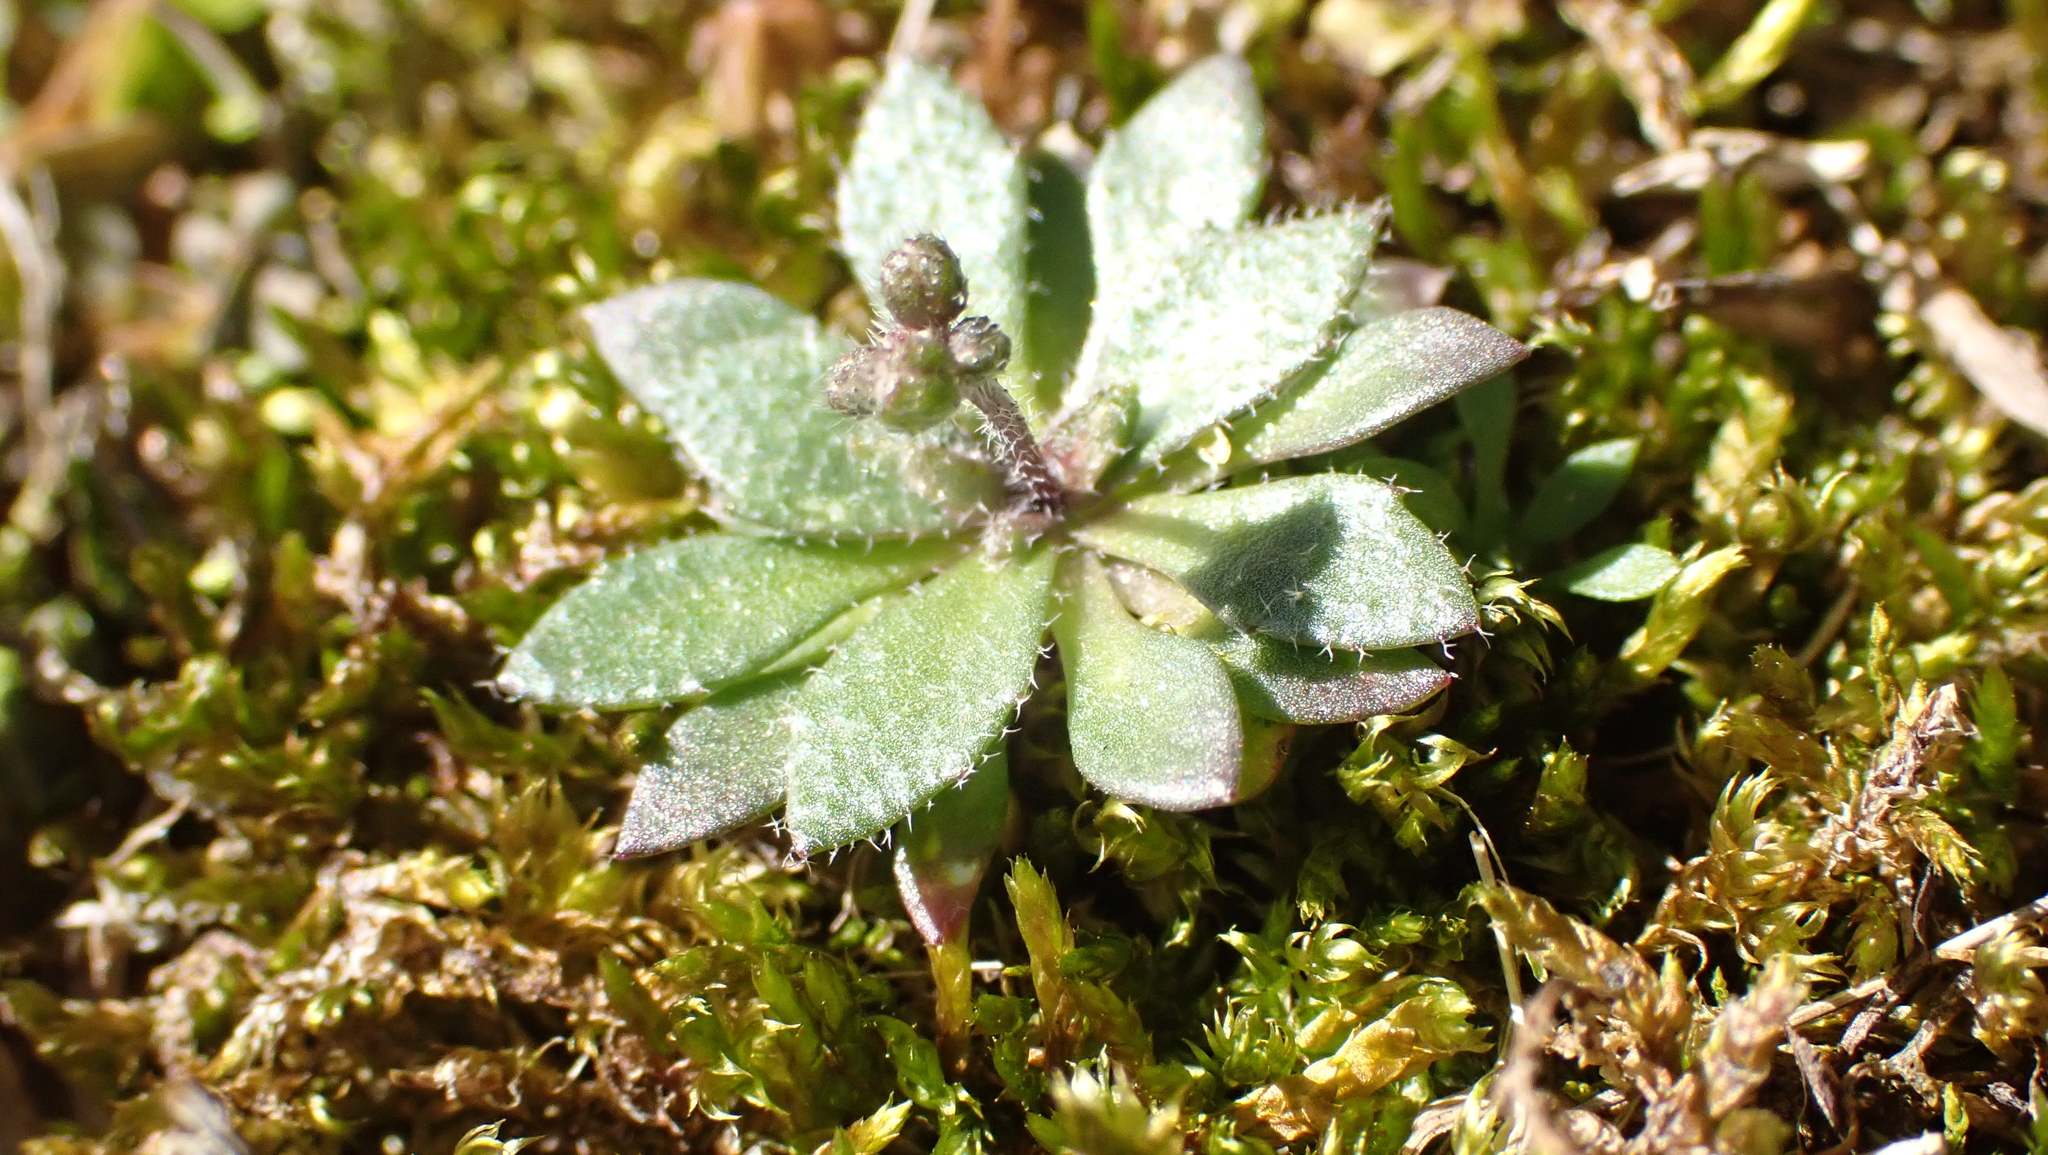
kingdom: Plantae
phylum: Tracheophyta
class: Magnoliopsida
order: Brassicales
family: Brassicaceae
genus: Draba
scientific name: Draba verna
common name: Spring draba
